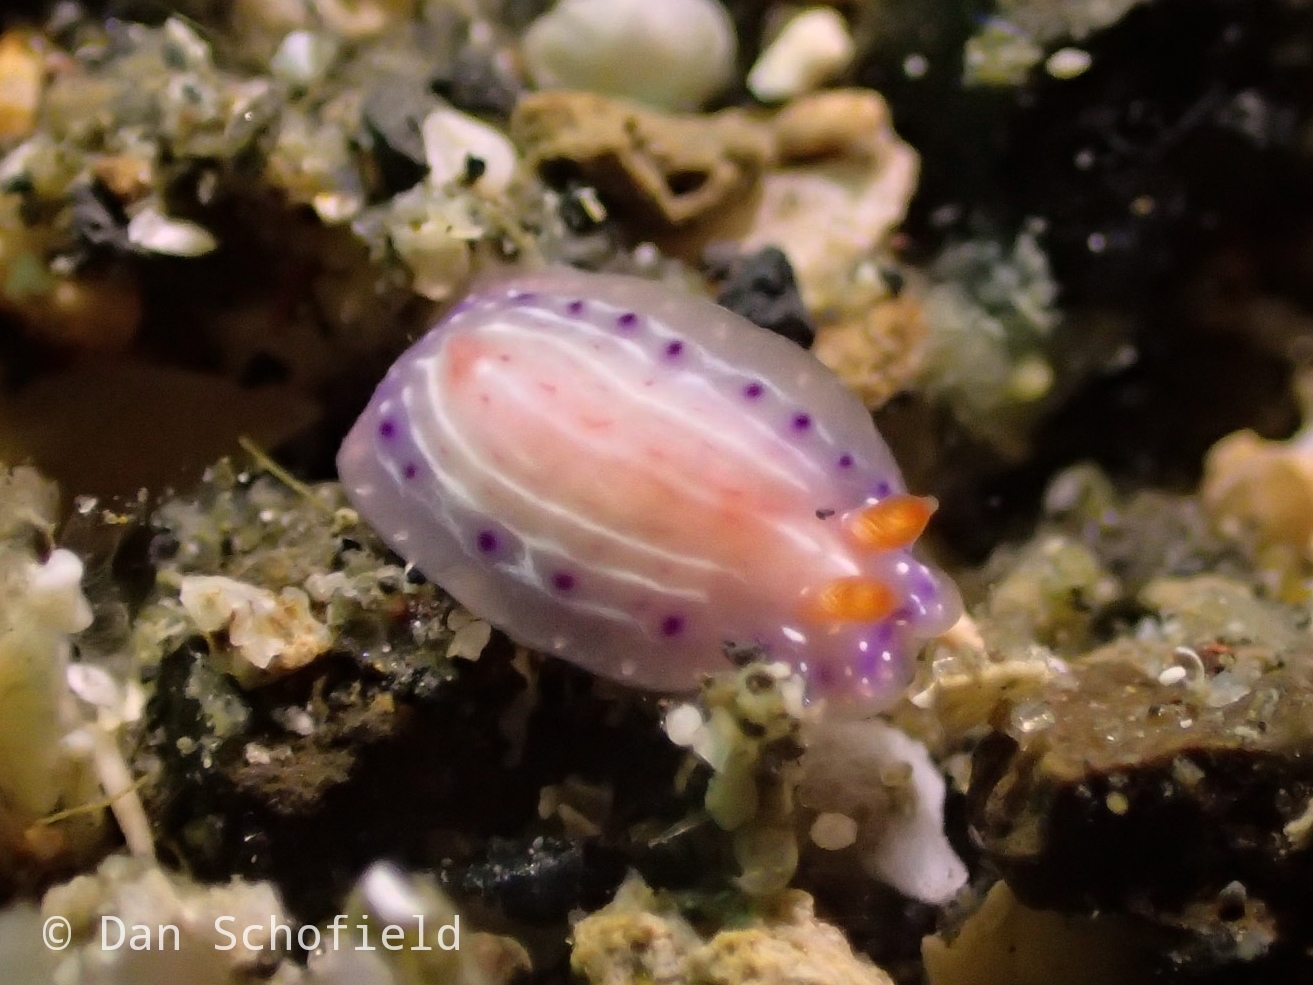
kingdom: Animalia
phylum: Mollusca
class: Gastropoda
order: Nudibranchia
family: Chromodorididae
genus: Hypselodoris
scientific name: Hypselodoris paradisa
